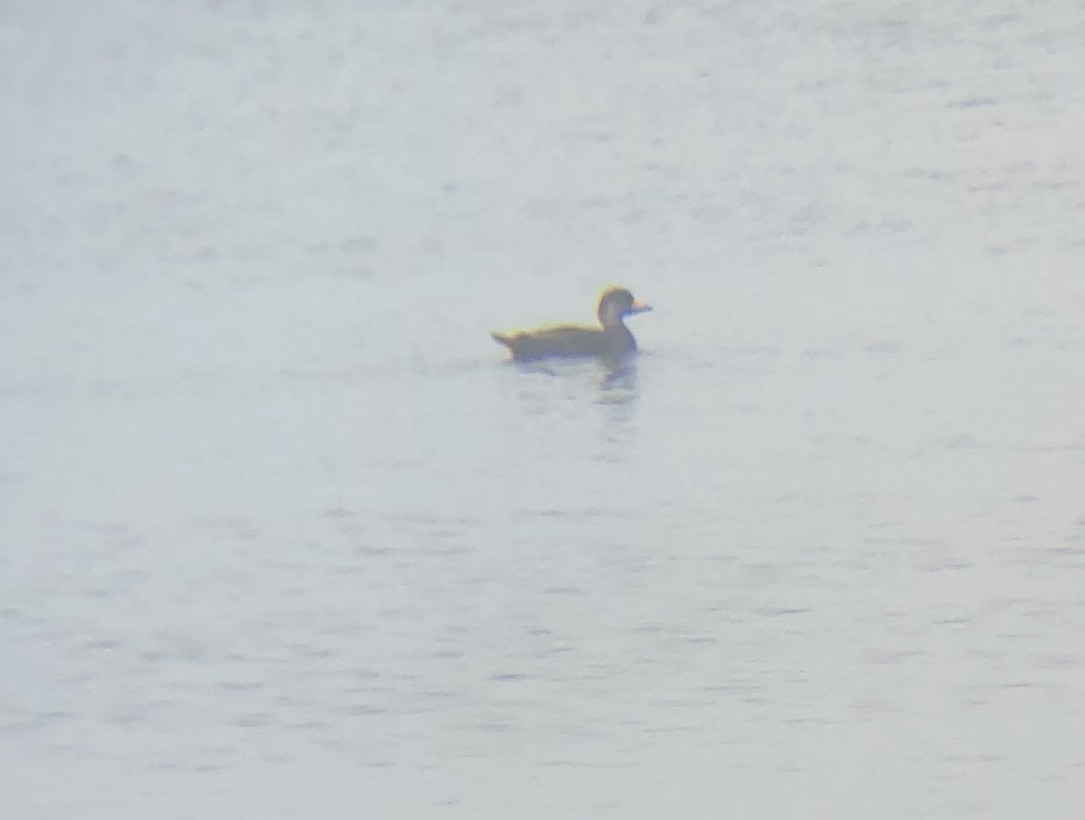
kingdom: Animalia
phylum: Chordata
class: Aves
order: Anseriformes
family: Anatidae
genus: Melanitta
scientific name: Melanitta americana
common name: Black scoter
